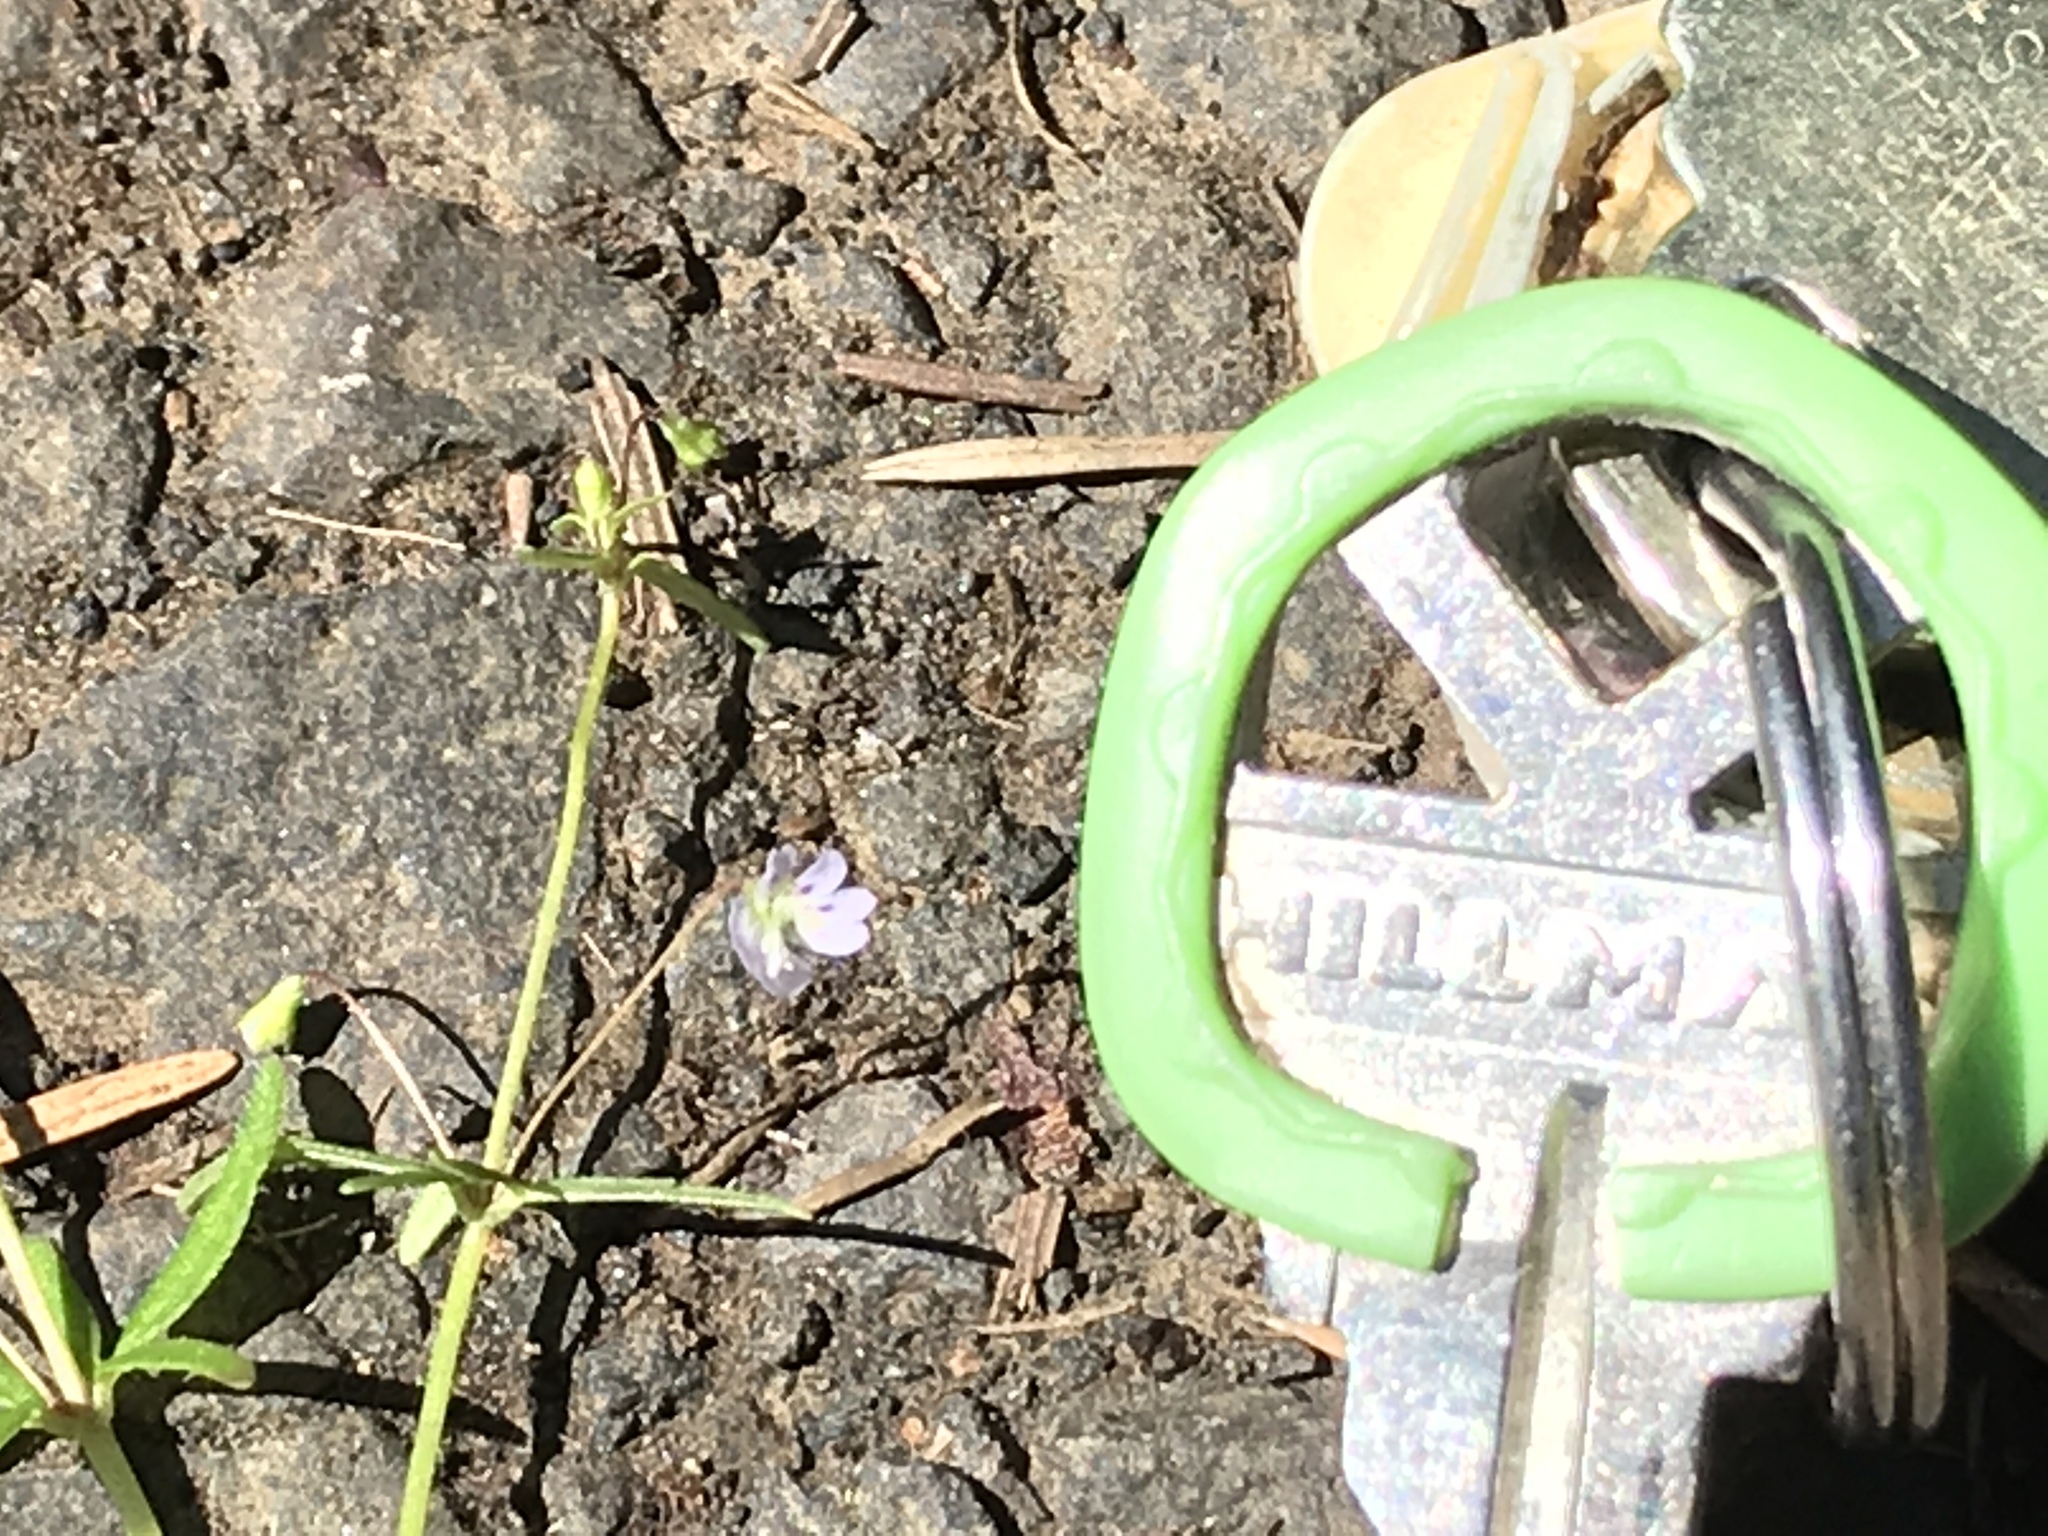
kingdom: Plantae
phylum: Tracheophyta
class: Magnoliopsida
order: Lamiales
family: Plantaginaceae
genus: Tonella
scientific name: Tonella tenella
